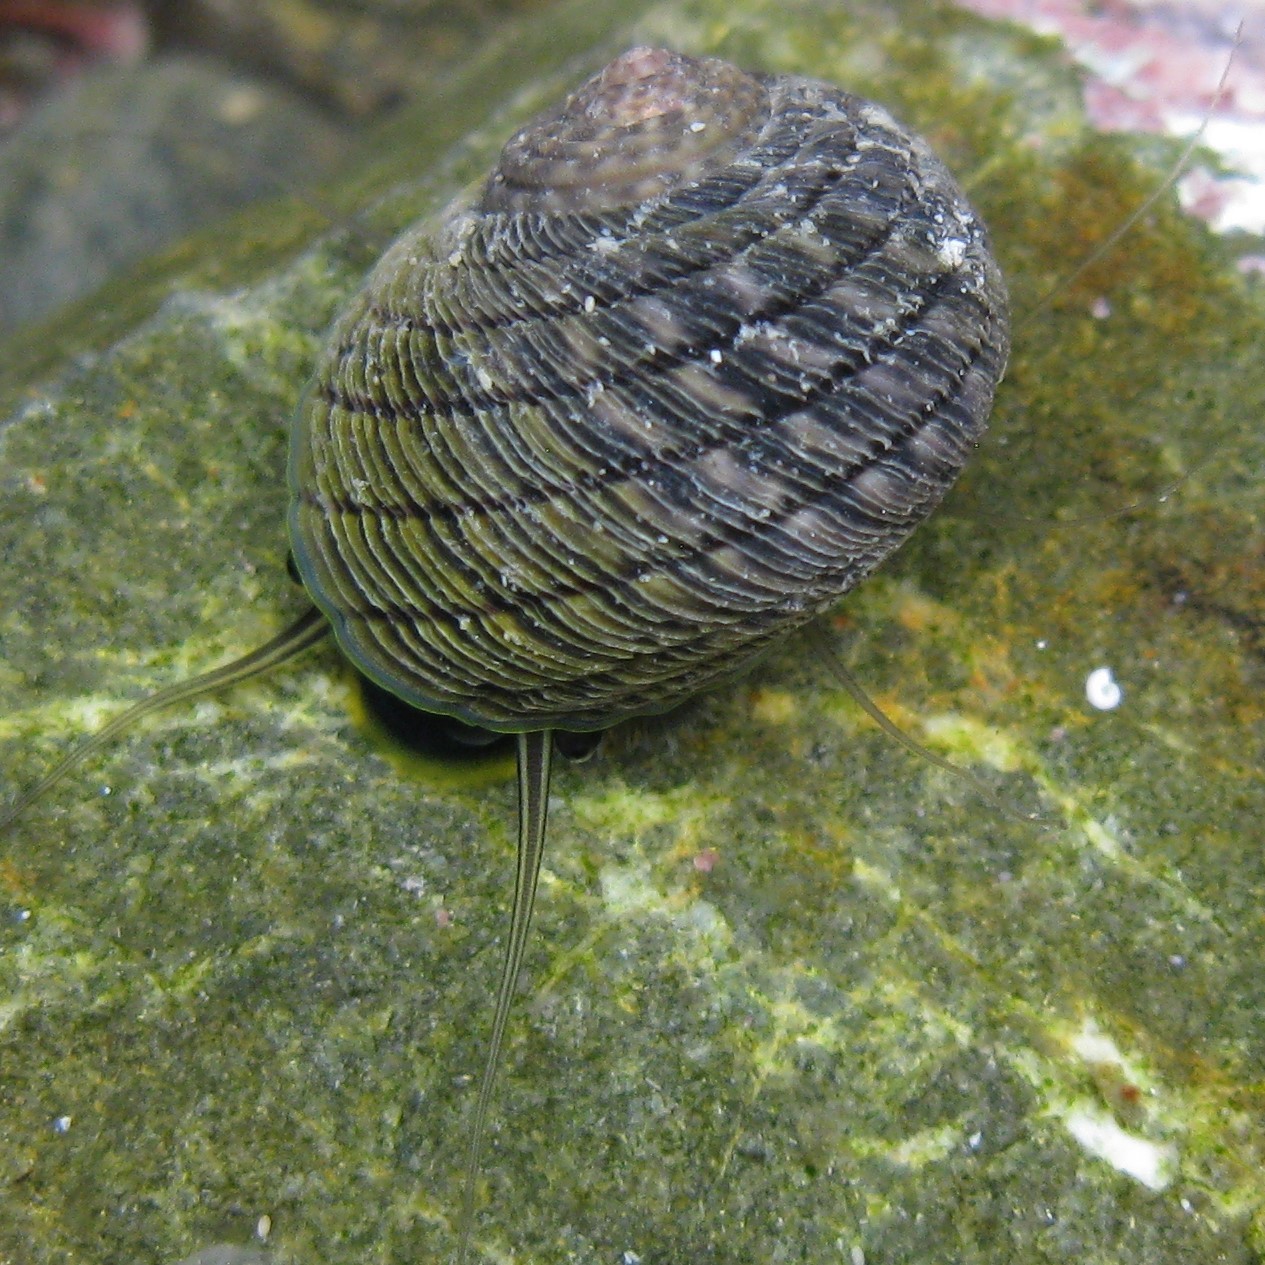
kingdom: Animalia
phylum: Mollusca
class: Gastropoda
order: Trochida
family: Trochidae
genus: Diloma
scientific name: Diloma aethiops
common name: Scorched monodont
